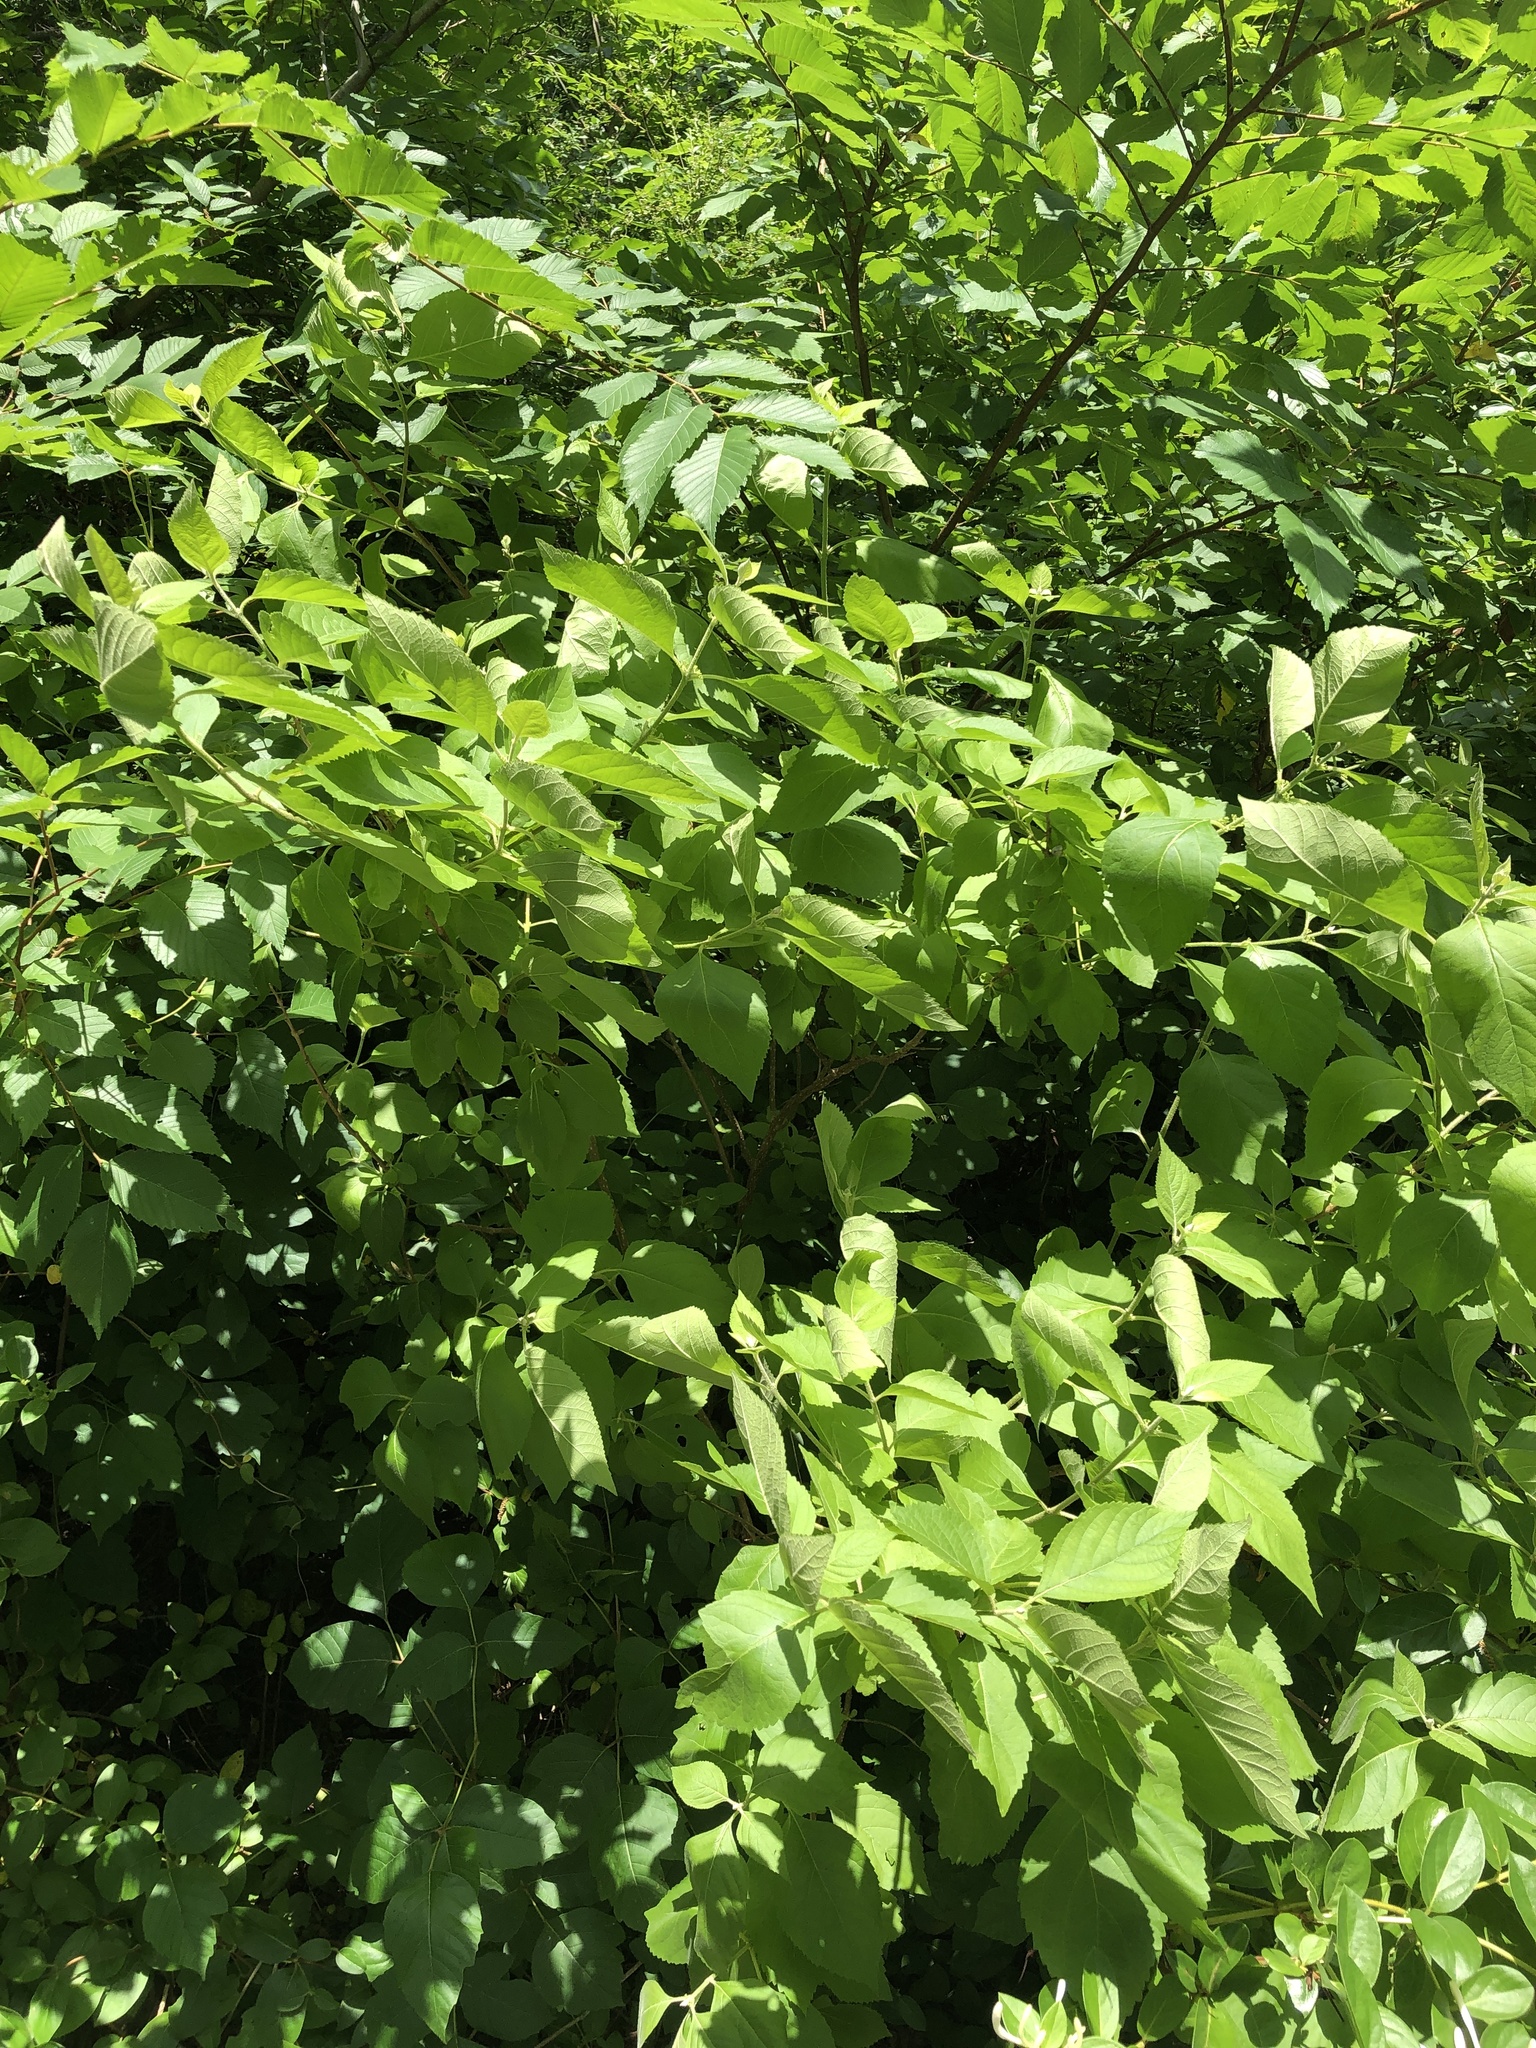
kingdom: Plantae
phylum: Tracheophyta
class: Magnoliopsida
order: Lamiales
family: Lamiaceae
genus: Callicarpa
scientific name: Callicarpa americana
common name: American beautyberry
